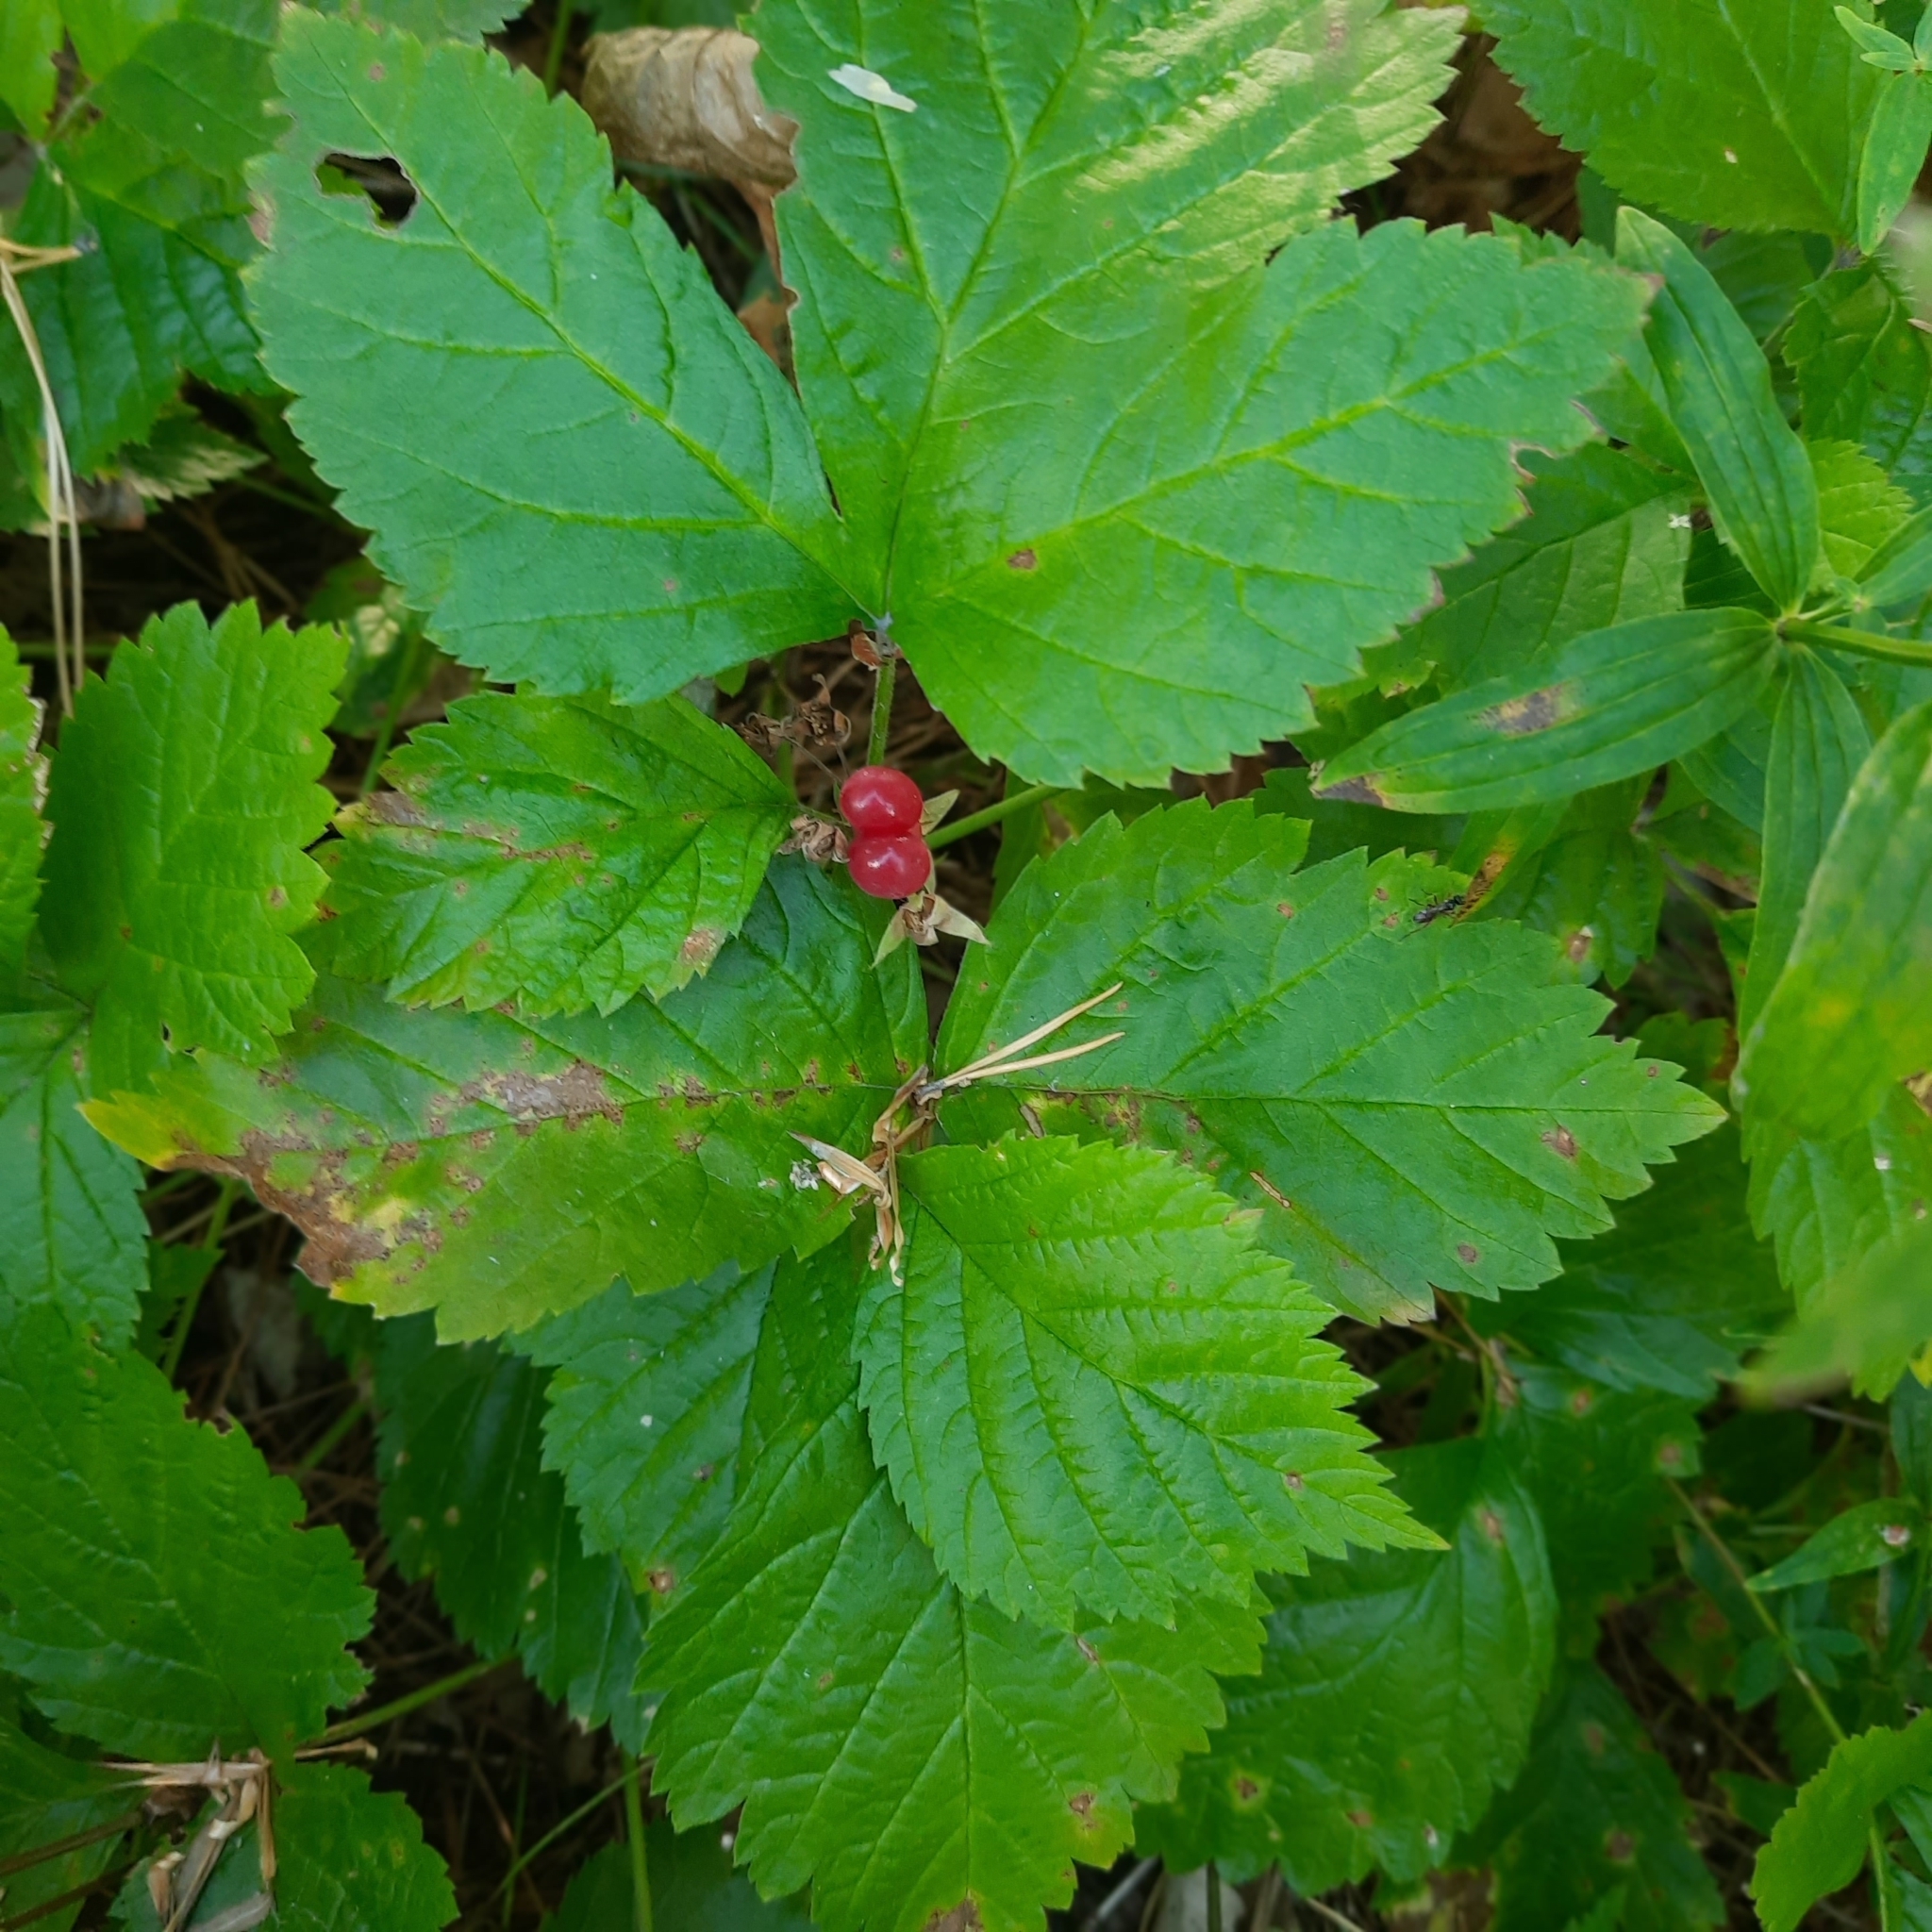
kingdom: Plantae
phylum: Tracheophyta
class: Magnoliopsida
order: Rosales
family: Rosaceae
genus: Rubus
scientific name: Rubus saxatilis
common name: Stone bramble
